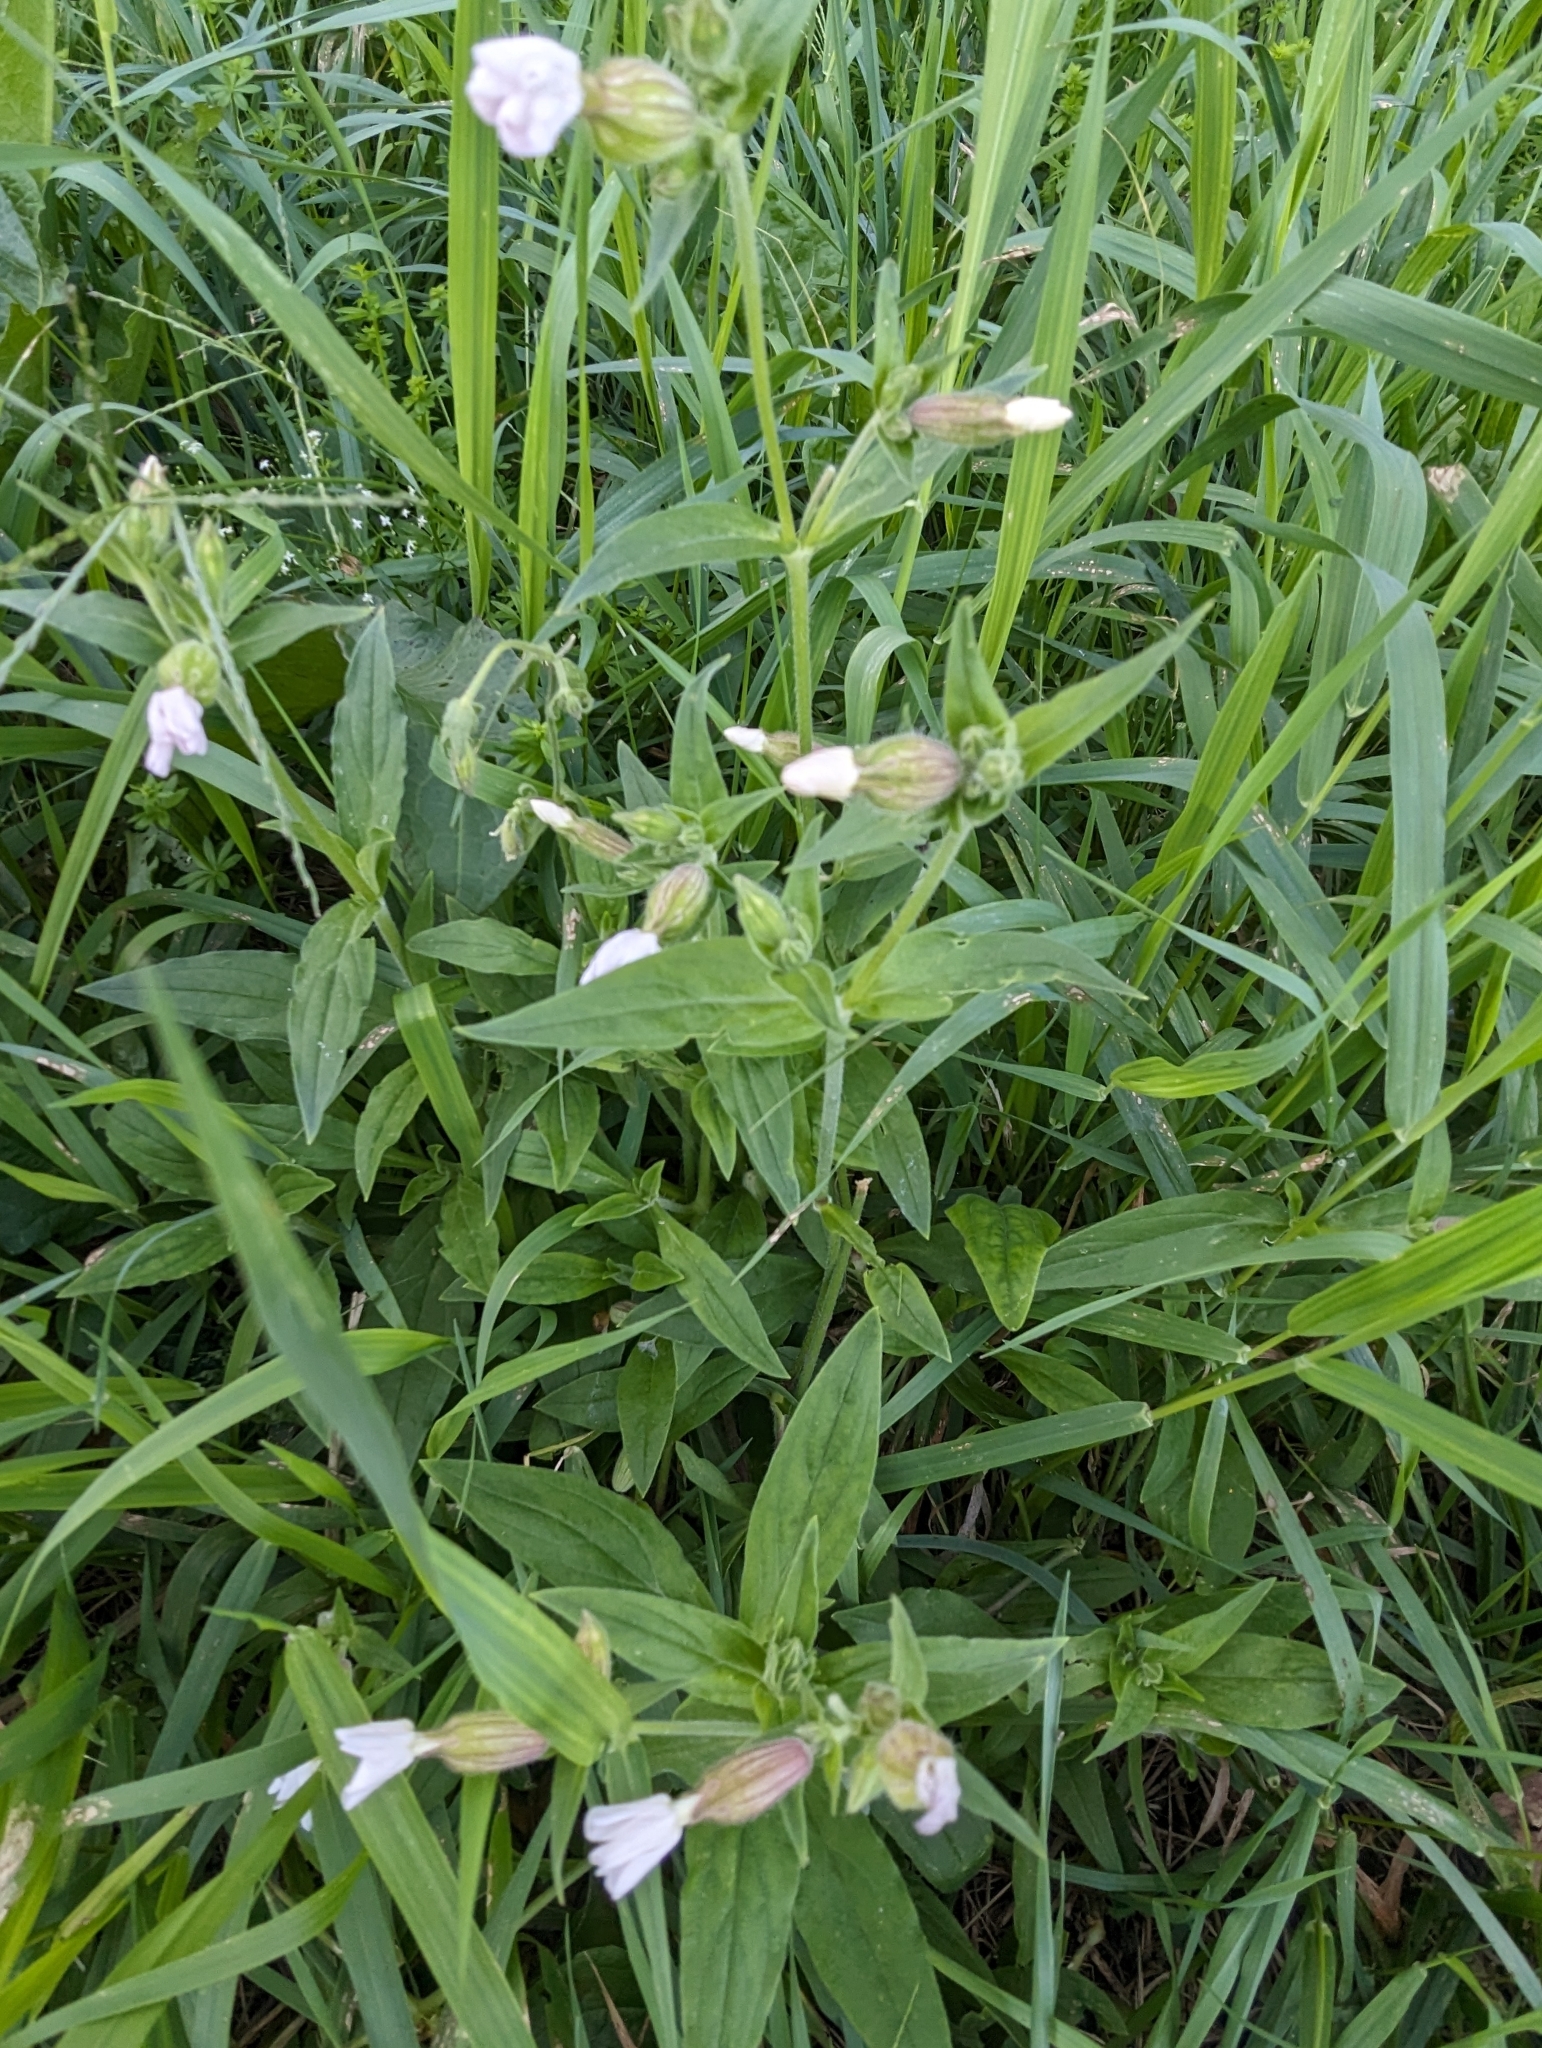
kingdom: Plantae
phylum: Tracheophyta
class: Magnoliopsida
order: Caryophyllales
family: Caryophyllaceae
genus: Silene
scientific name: Silene latifolia
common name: White campion
